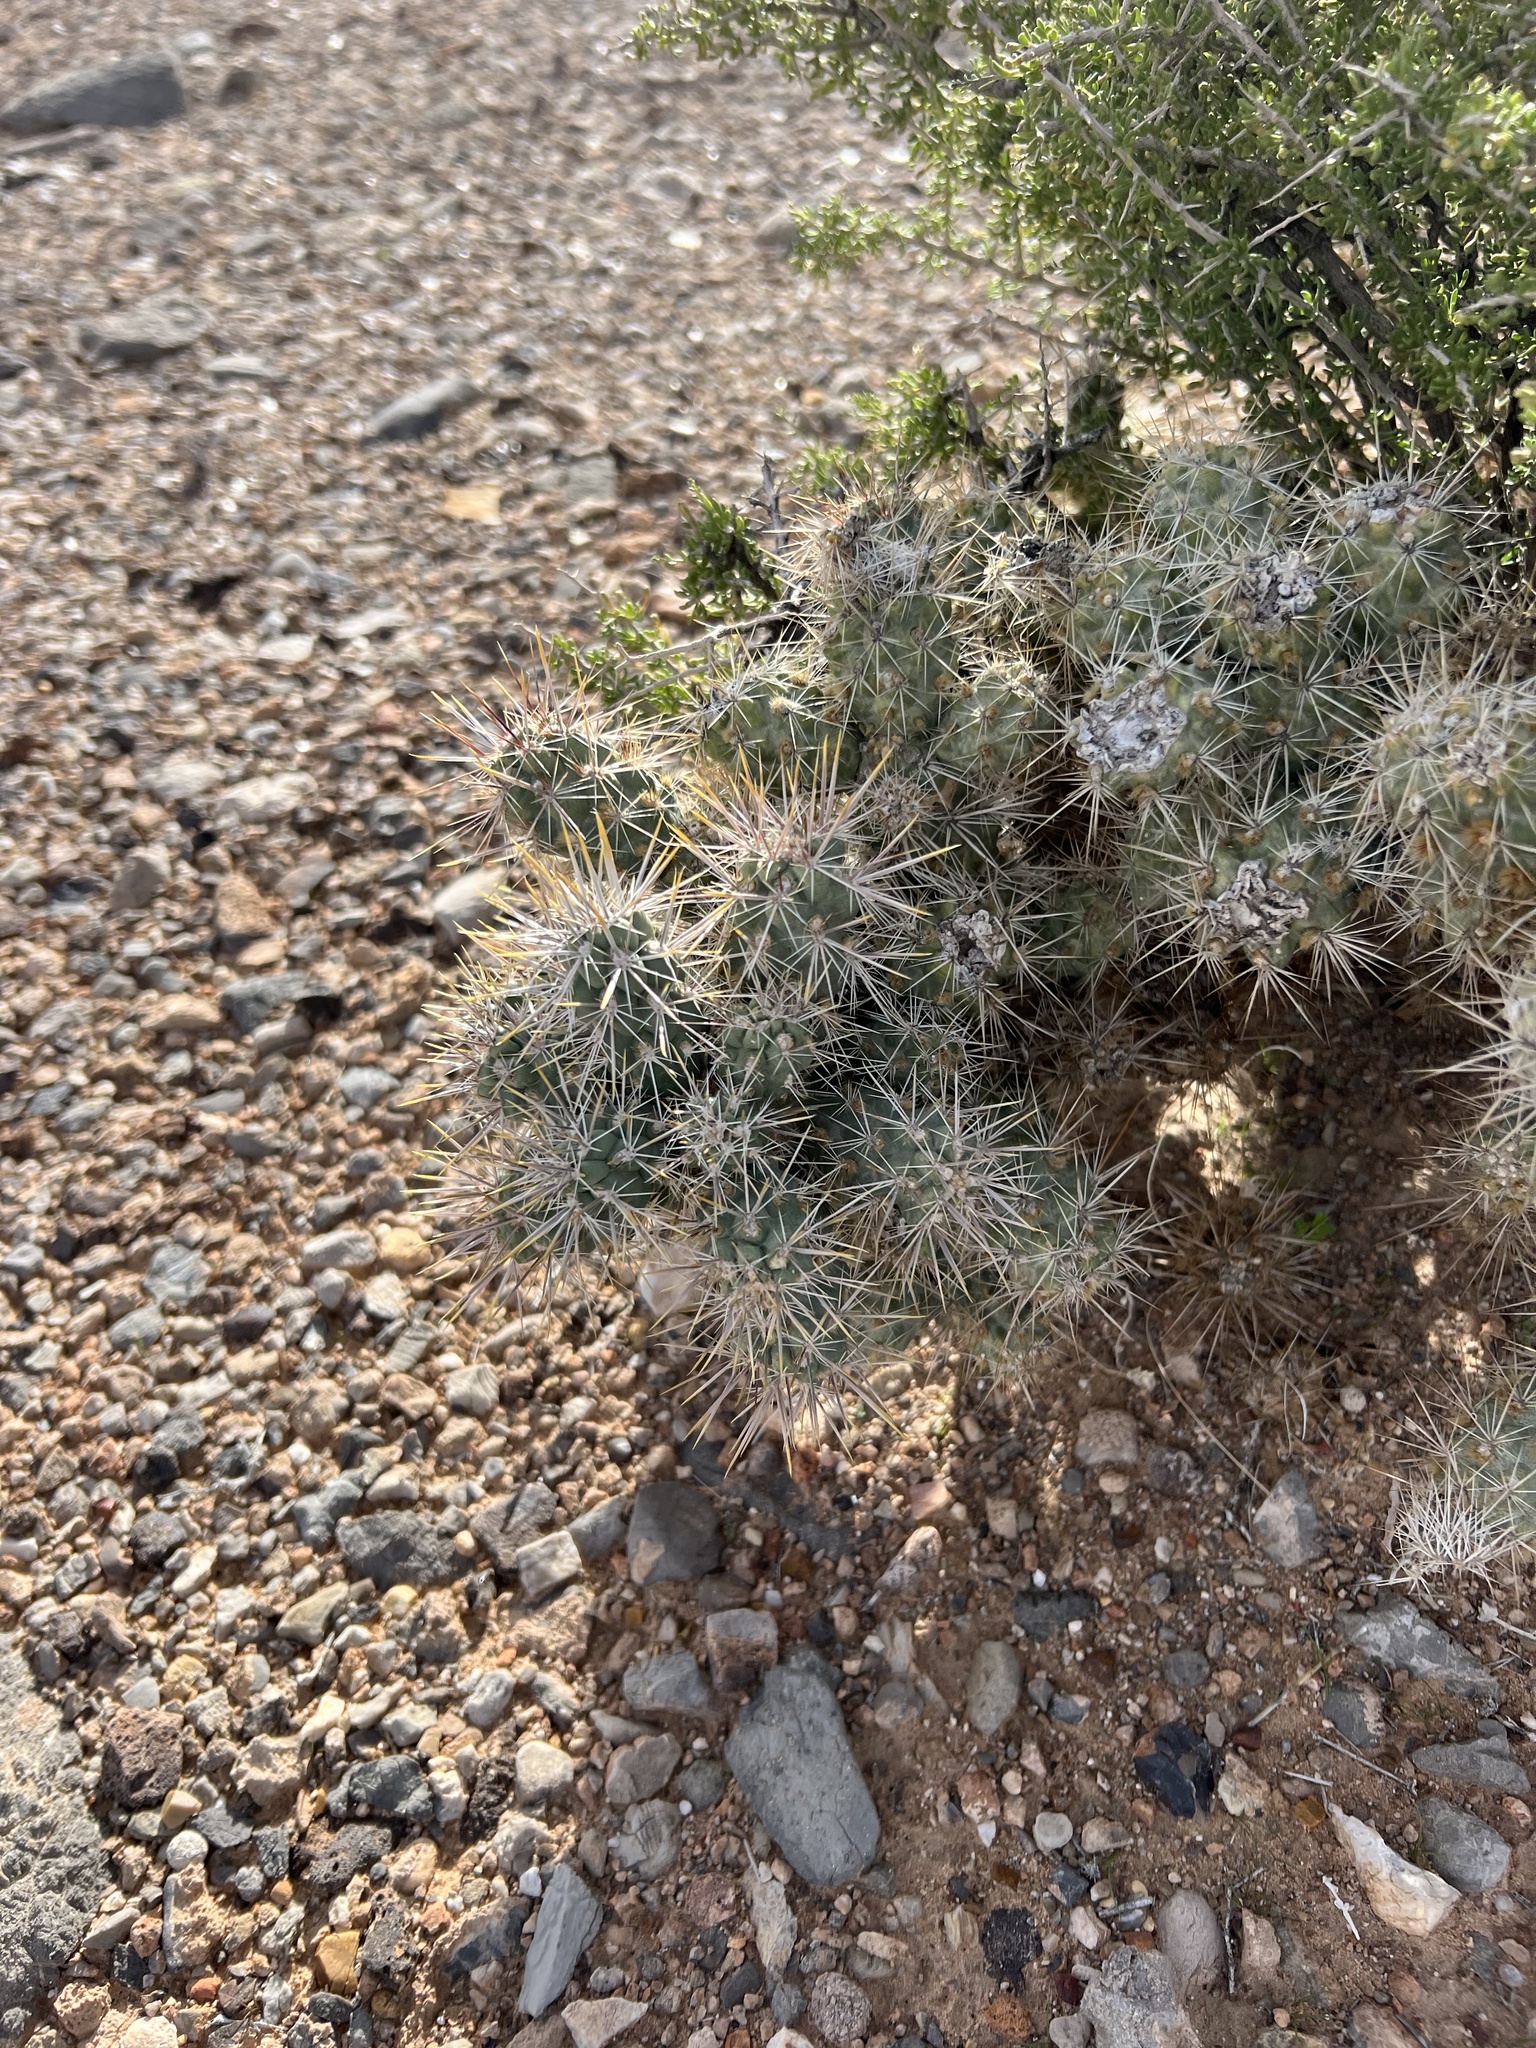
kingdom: Plantae
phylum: Tracheophyta
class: Magnoliopsida
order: Caryophyllales
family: Cactaceae
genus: Cylindropuntia
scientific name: Cylindropuntia echinocarpa
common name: Ground cholla
